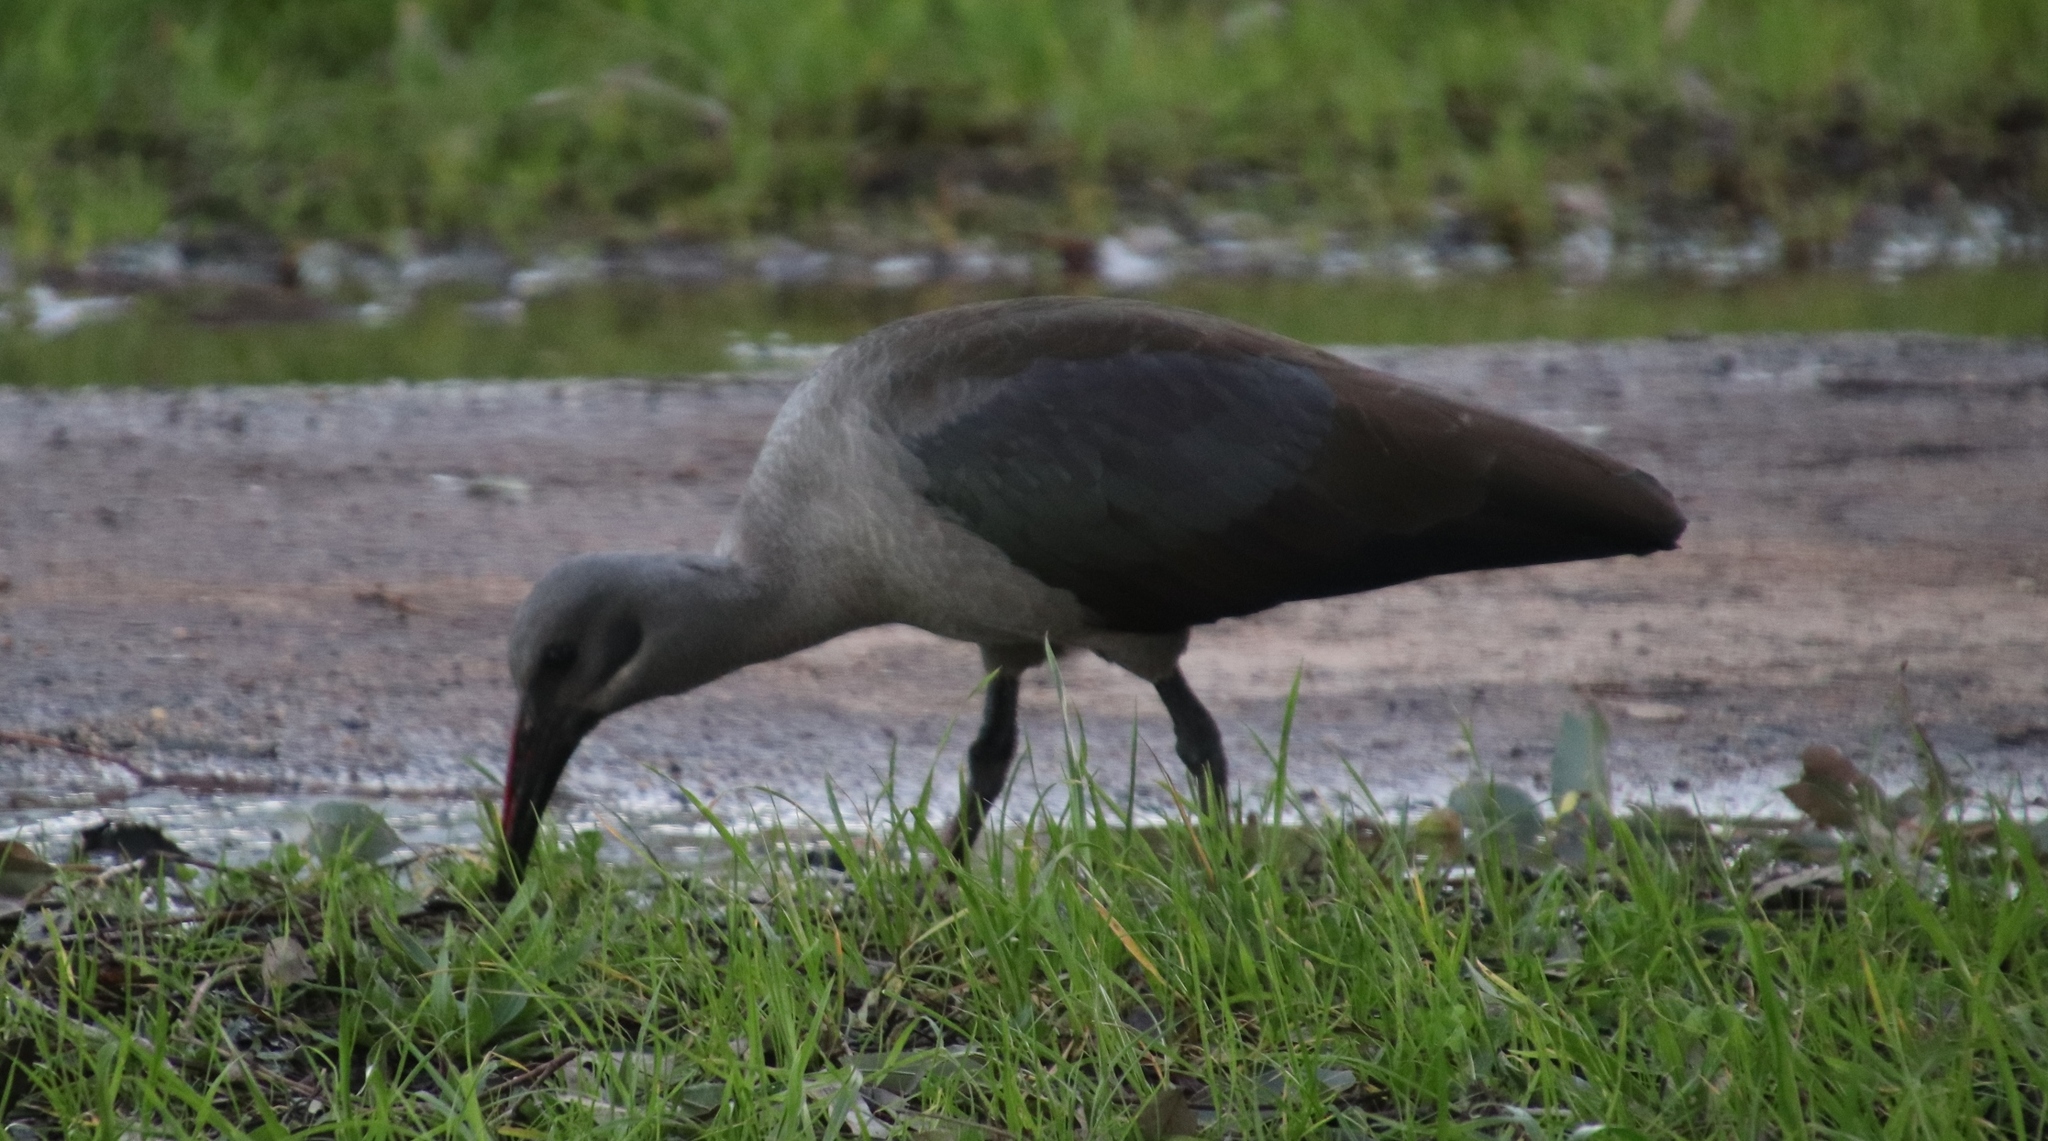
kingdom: Animalia
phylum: Chordata
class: Aves
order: Pelecaniformes
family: Threskiornithidae
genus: Bostrychia
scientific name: Bostrychia hagedash
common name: Hadada ibis
